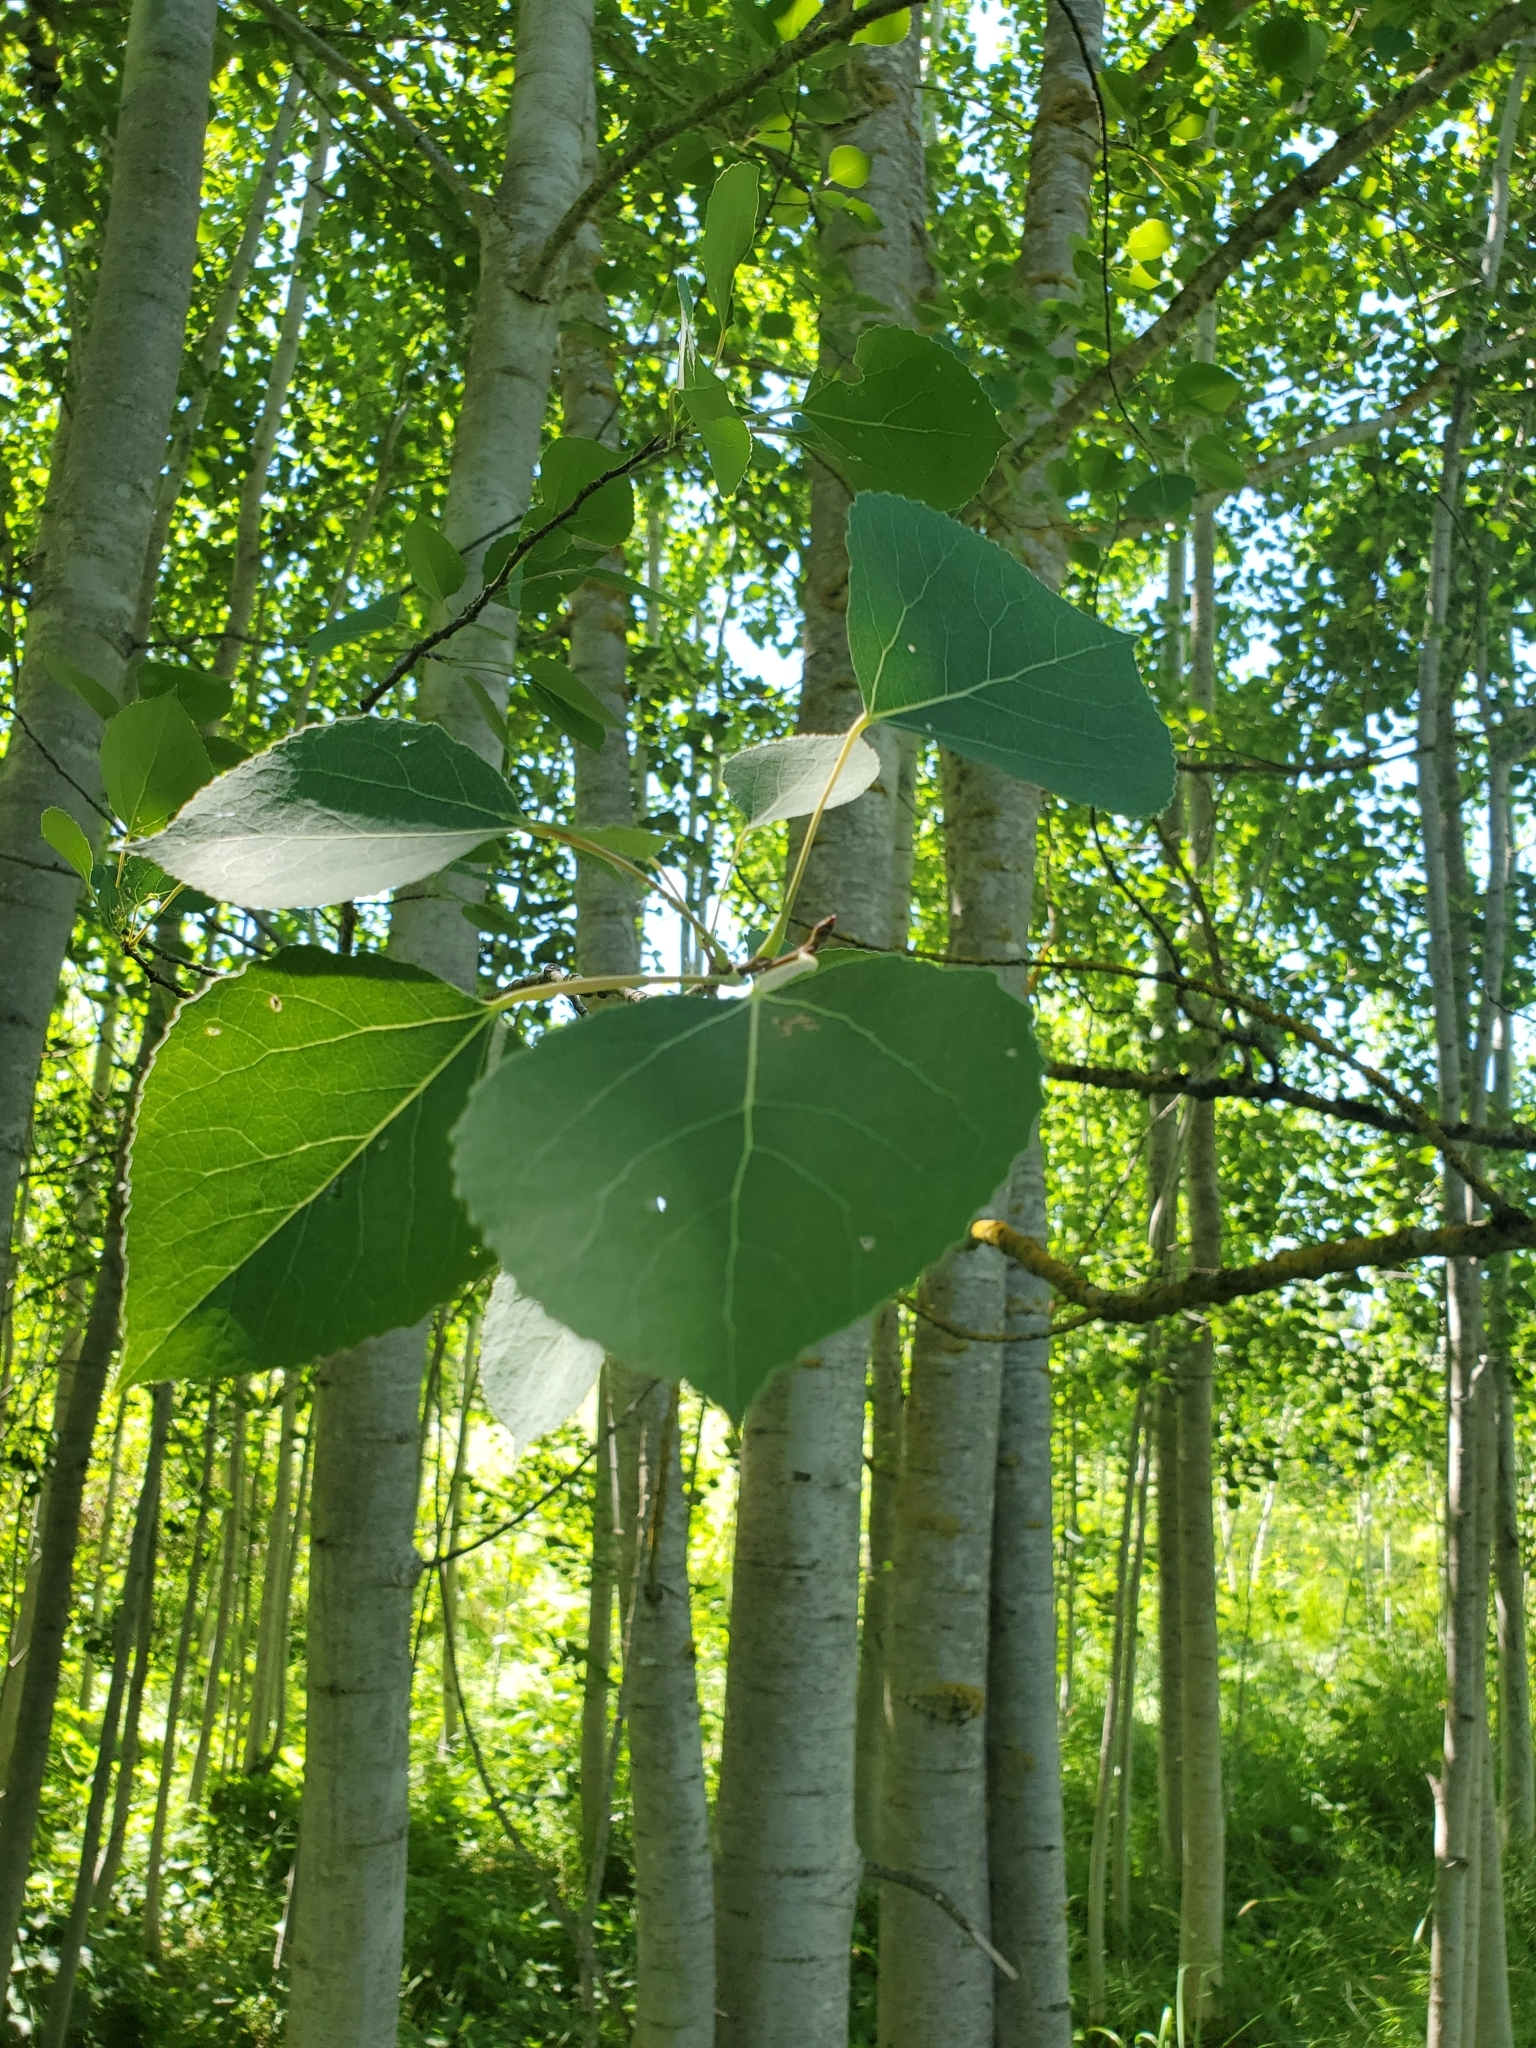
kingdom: Plantae
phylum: Tracheophyta
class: Magnoliopsida
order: Malpighiales
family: Salicaceae
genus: Populus
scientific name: Populus tremuloides
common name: Quaking aspen
